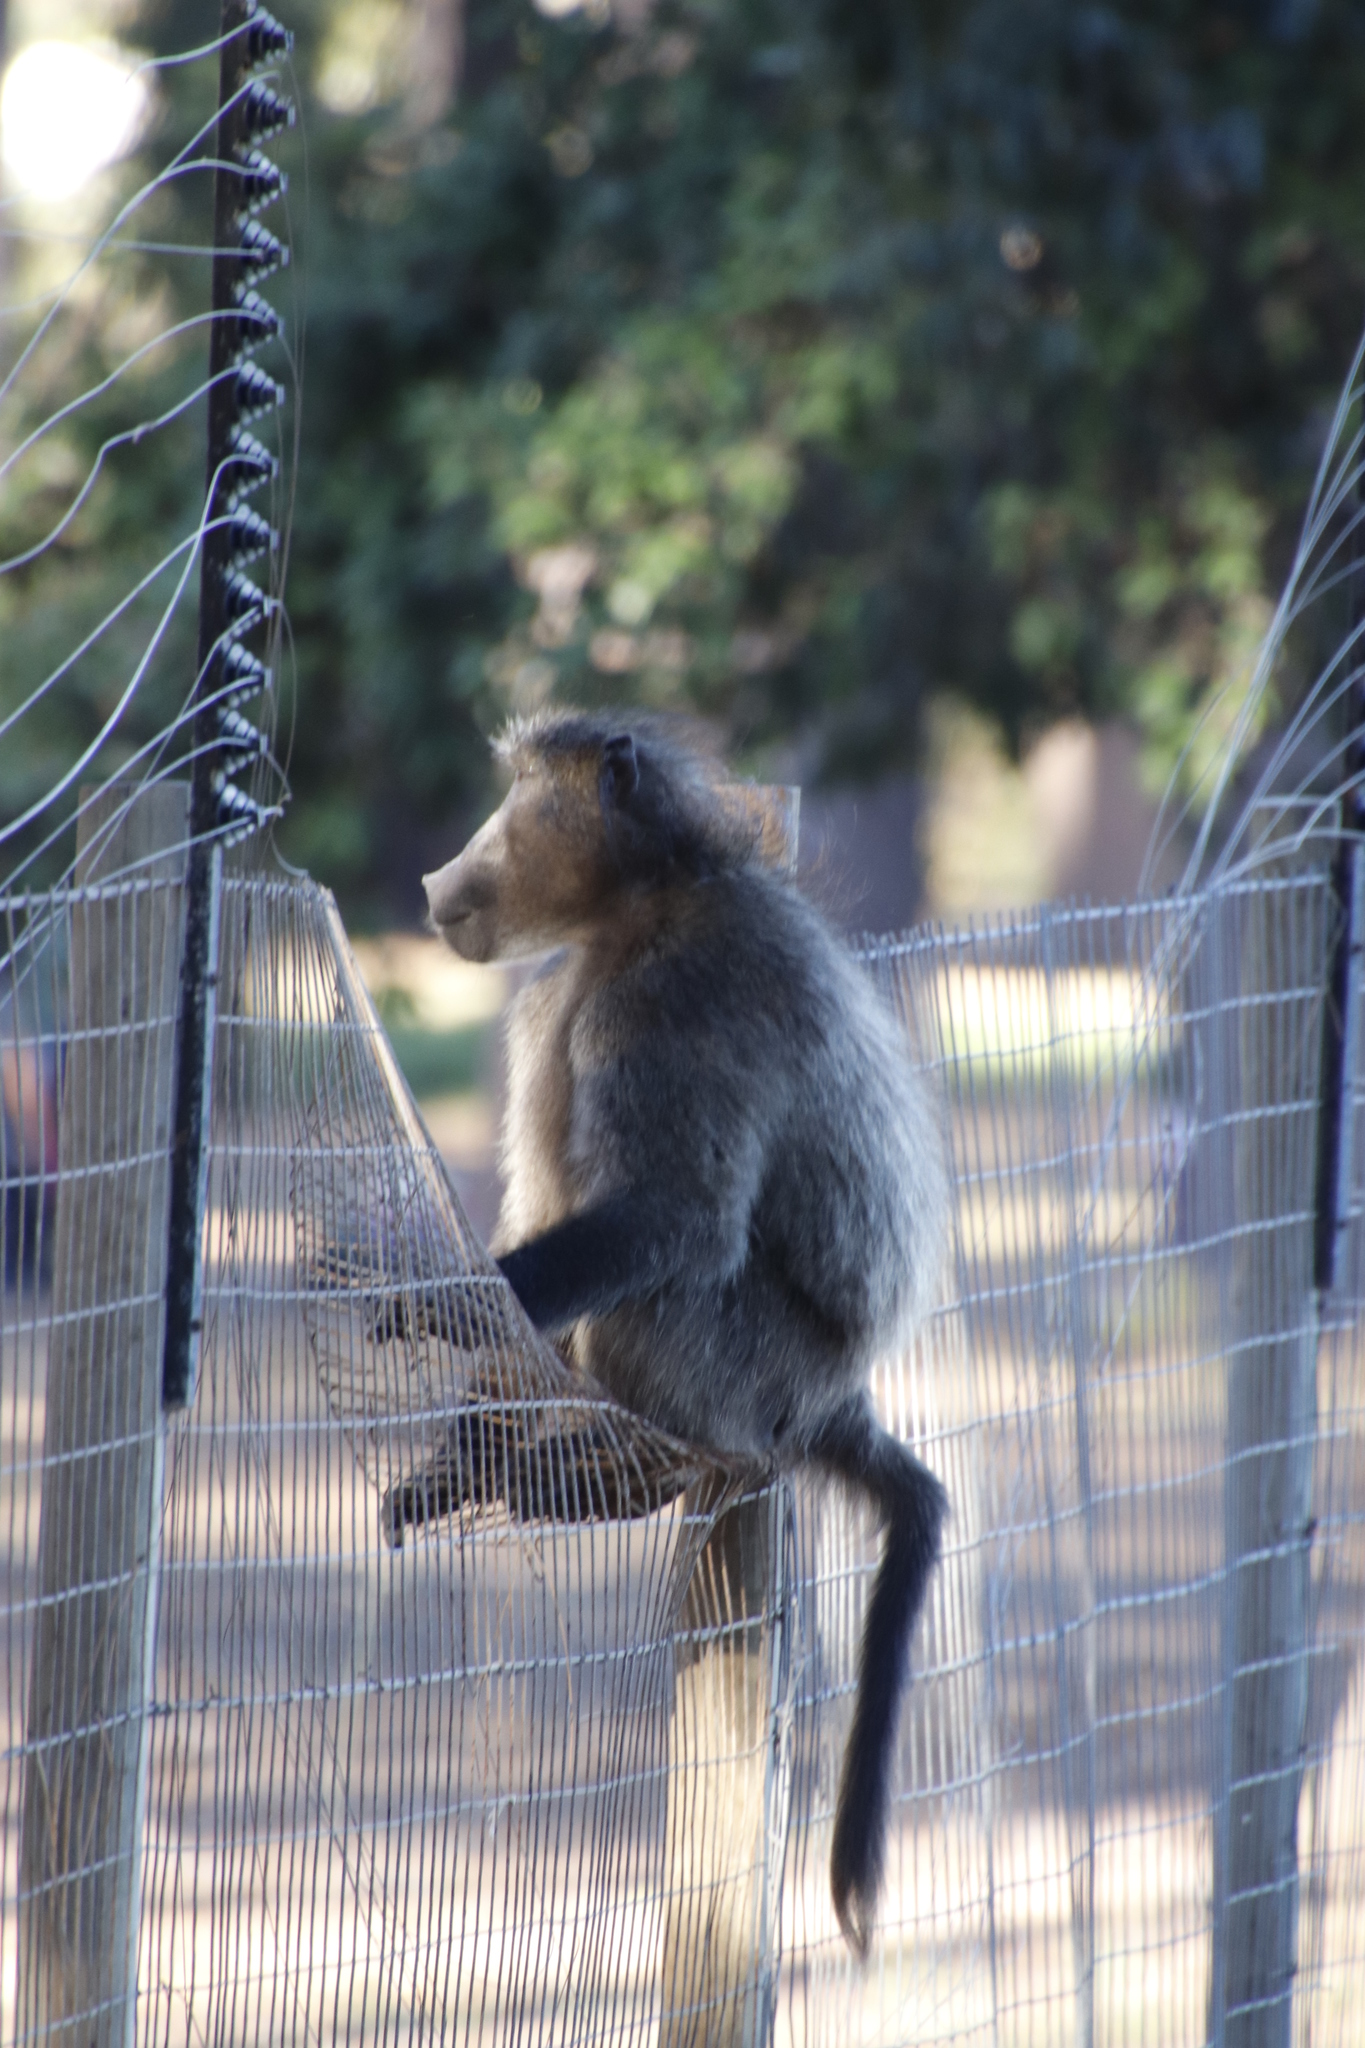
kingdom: Animalia
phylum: Chordata
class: Mammalia
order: Primates
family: Cercopithecidae
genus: Papio
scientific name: Papio ursinus
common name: Chacma baboon
